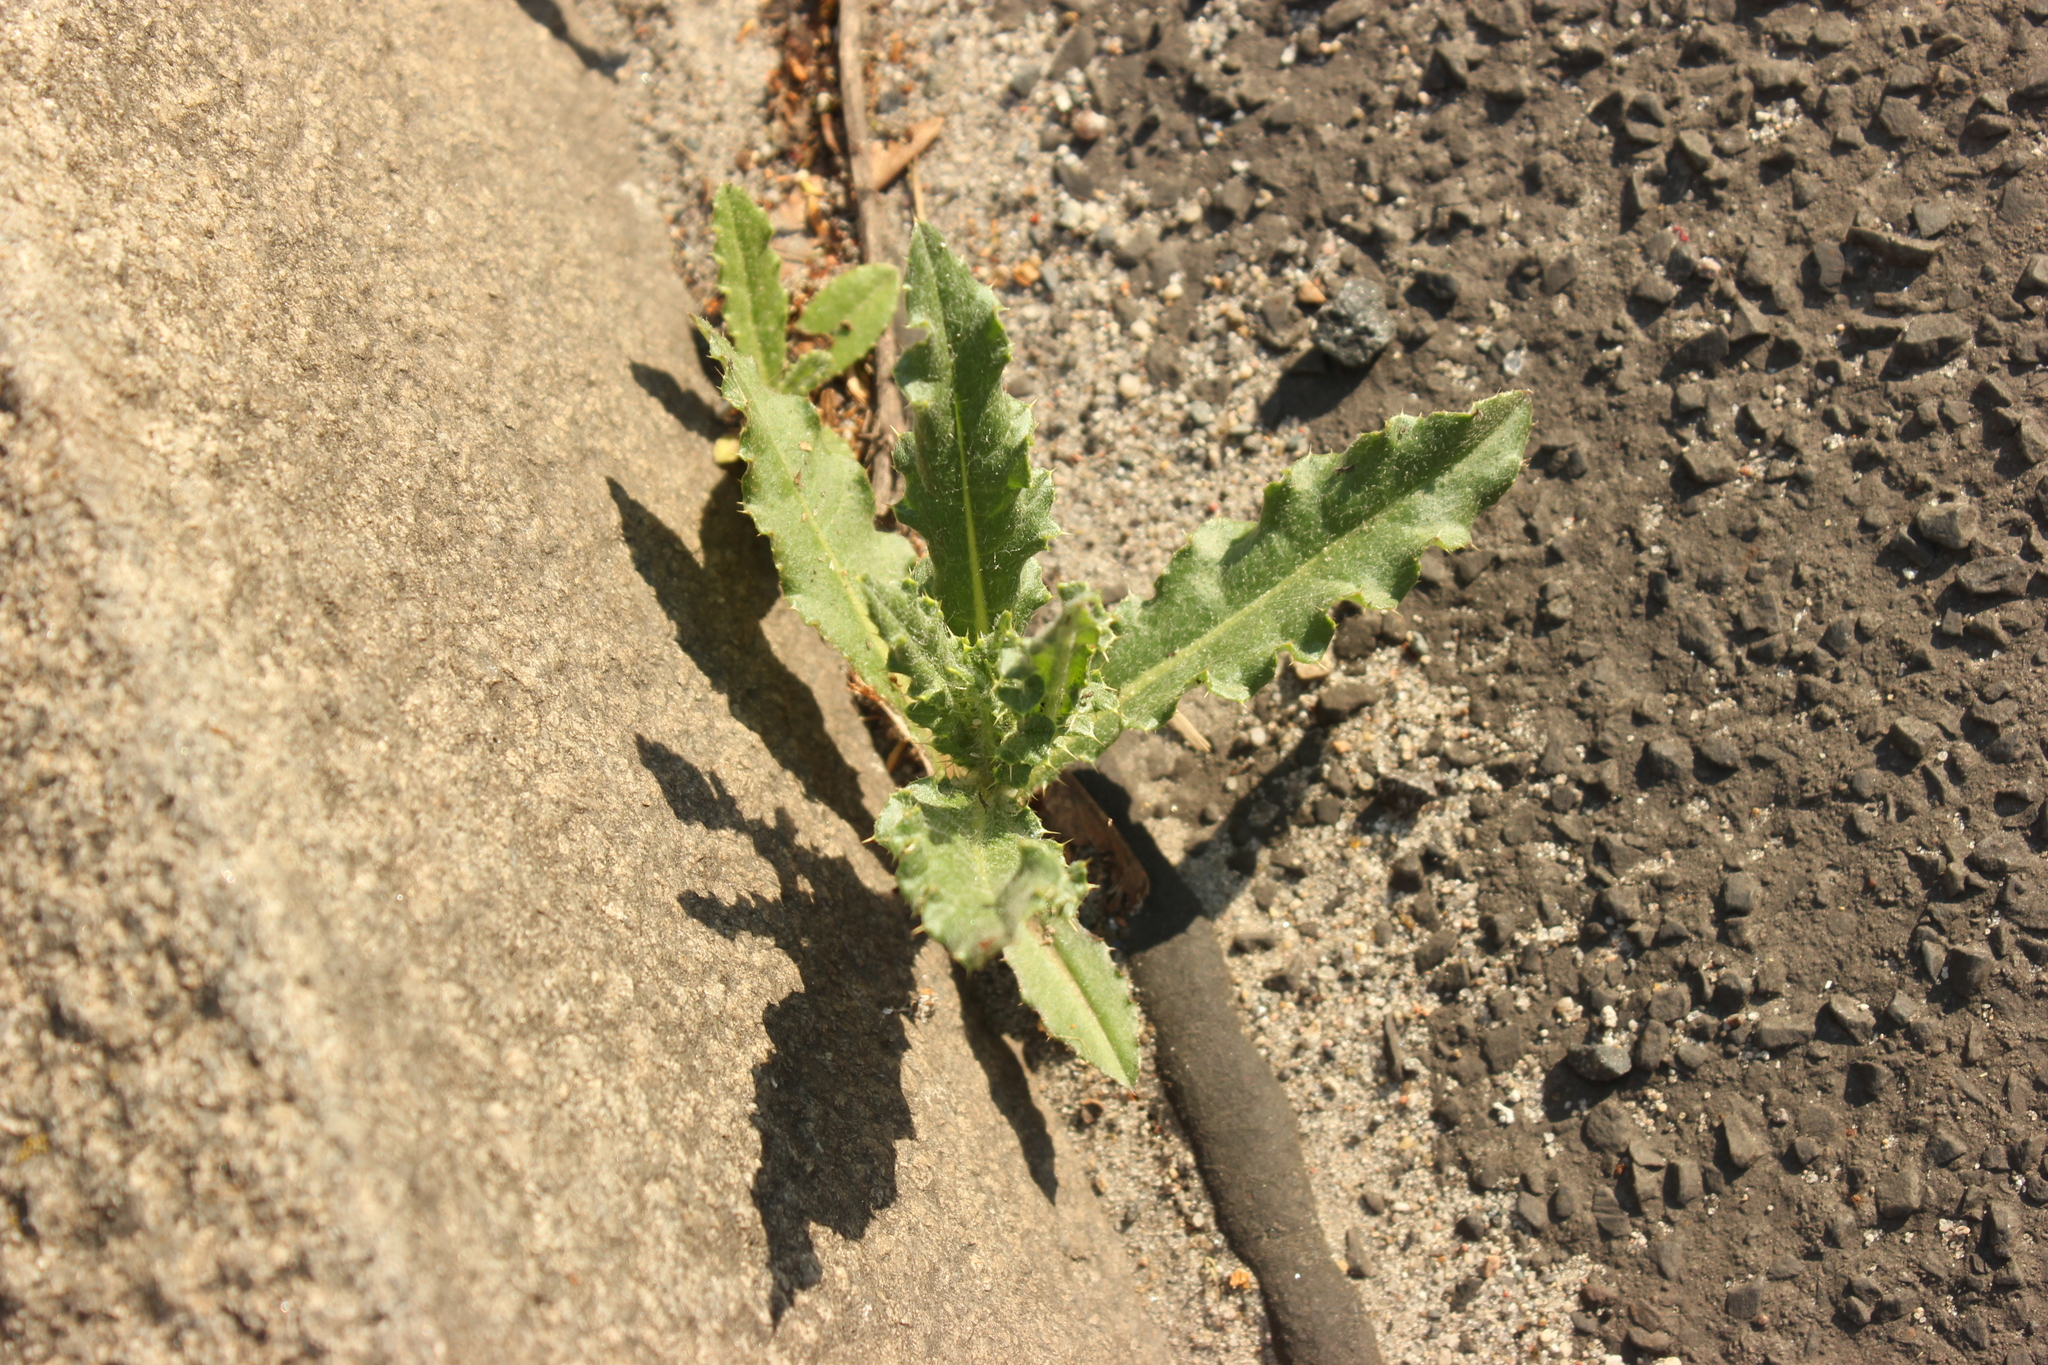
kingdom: Plantae
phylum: Tracheophyta
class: Magnoliopsida
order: Asterales
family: Asteraceae
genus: Cirsium
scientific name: Cirsium arvense
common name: Creeping thistle
